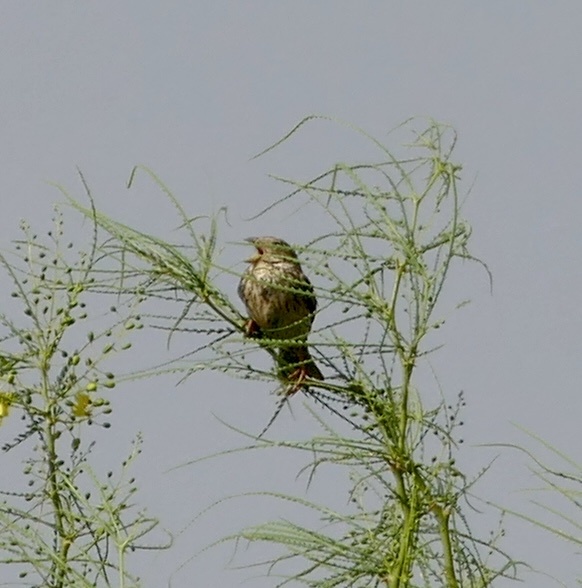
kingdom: Animalia
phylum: Chordata
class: Aves
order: Passeriformes
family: Emberizidae
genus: Emberiza
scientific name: Emberiza calandra
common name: Corn bunting
